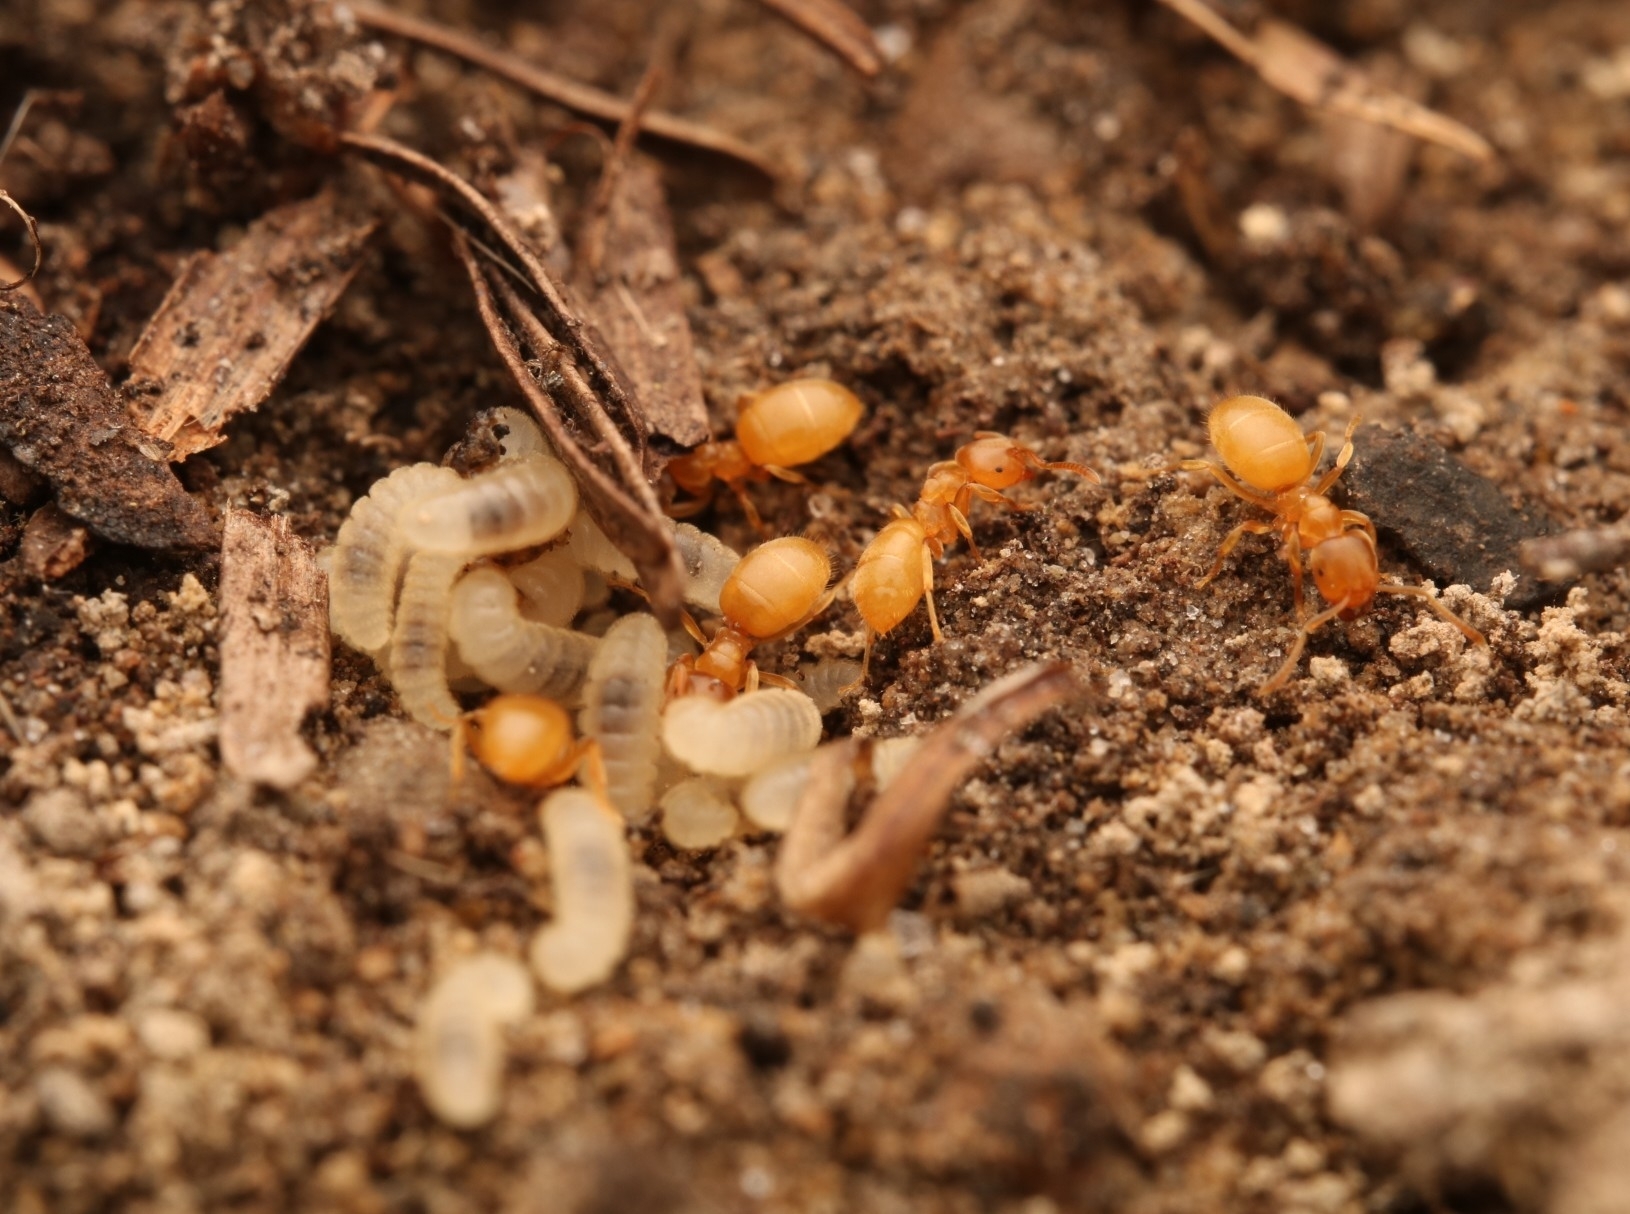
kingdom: Animalia
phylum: Arthropoda
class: Insecta
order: Hymenoptera
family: Formicidae
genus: Lasius
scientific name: Lasius nearcticus
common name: New world fuzzy ant
